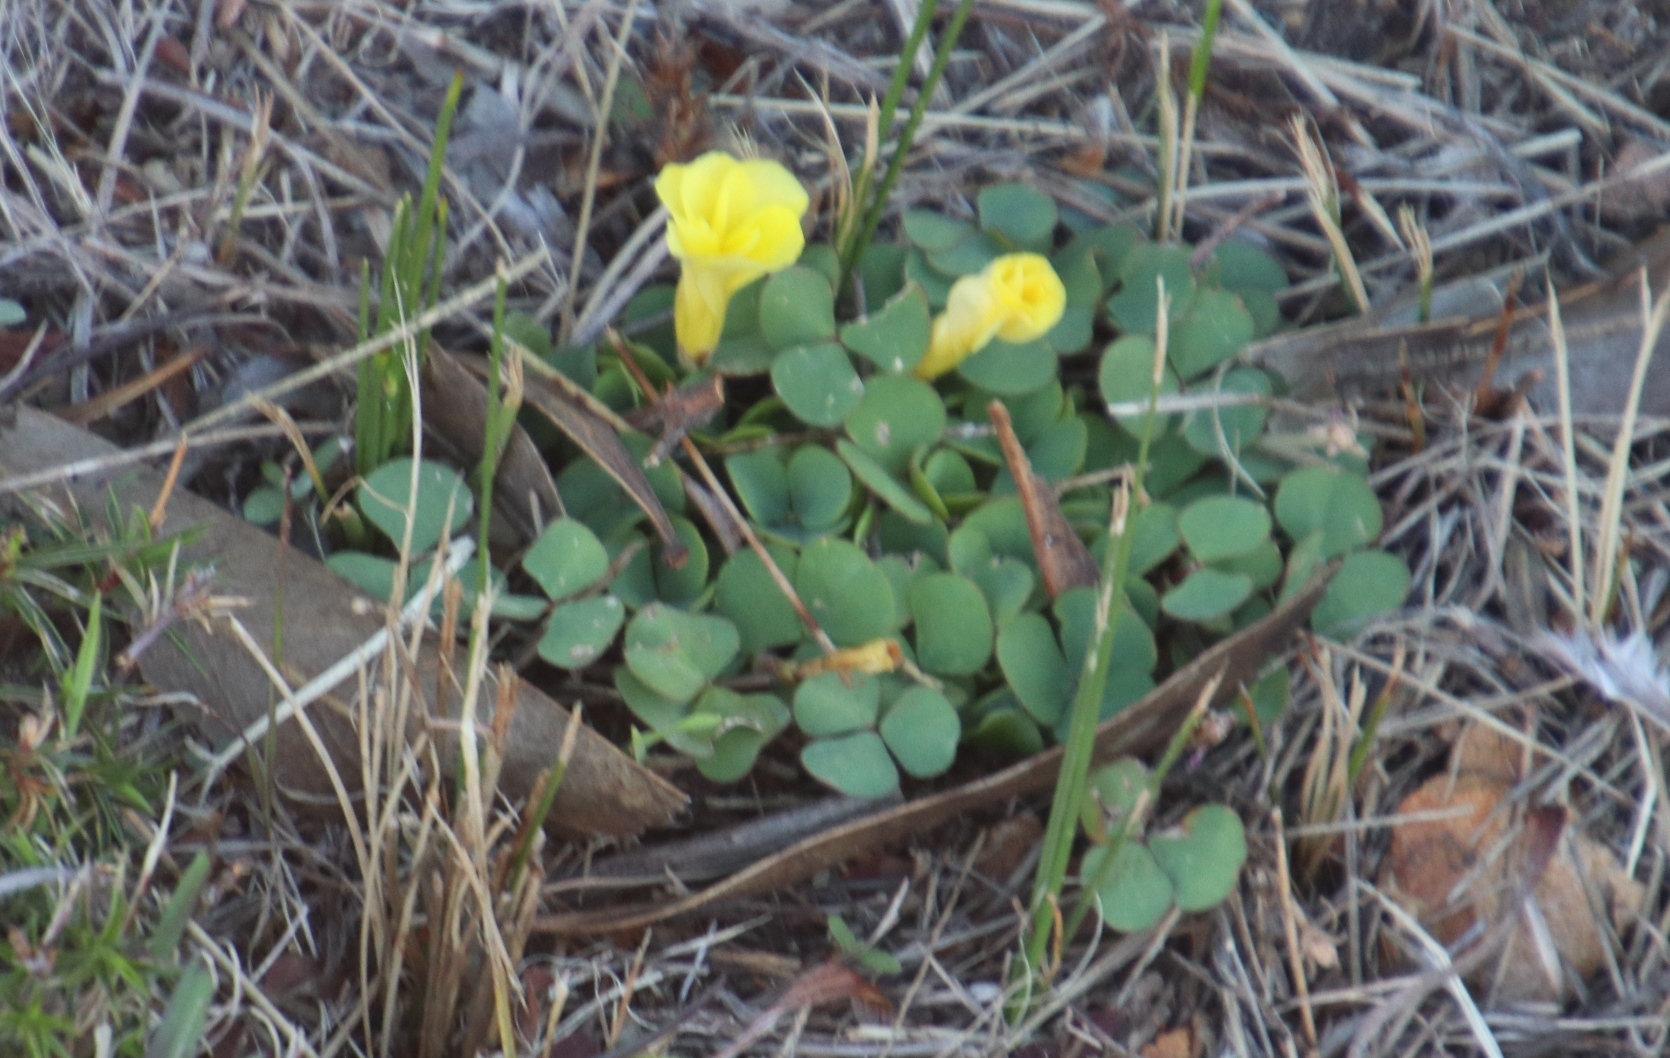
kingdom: Plantae
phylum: Tracheophyta
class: Magnoliopsida
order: Oxalidales
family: Oxalidaceae
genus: Oxalis
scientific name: Oxalis luteola
